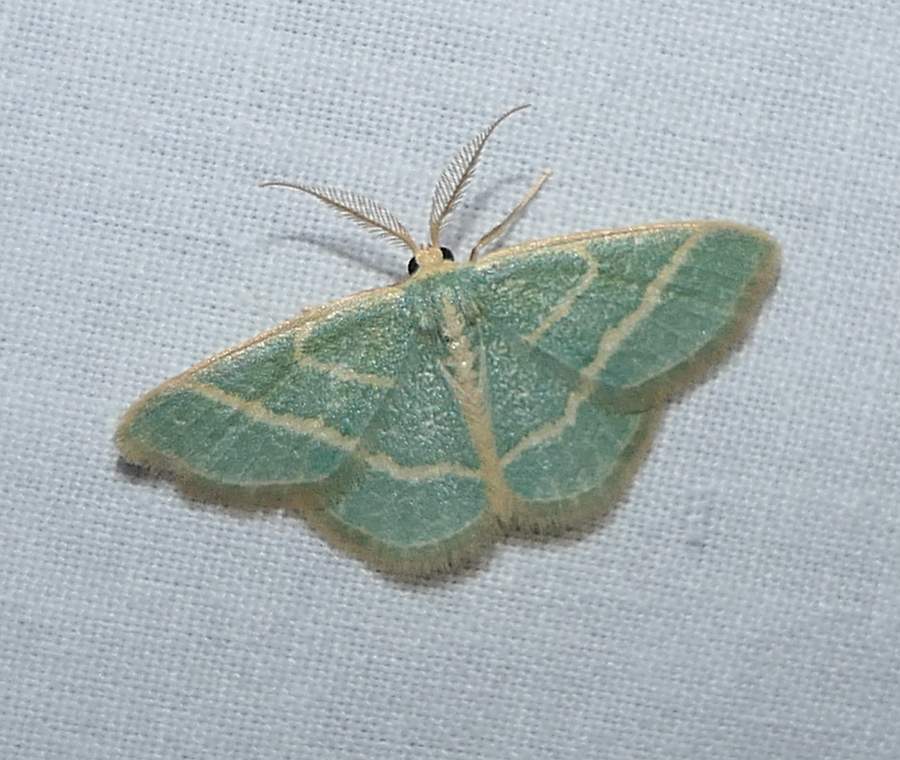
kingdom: Animalia
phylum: Arthropoda
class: Insecta
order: Lepidoptera
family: Geometridae
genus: Chlorochlamys
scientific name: Chlorochlamys chloroleucaria
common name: Blackberry looper
